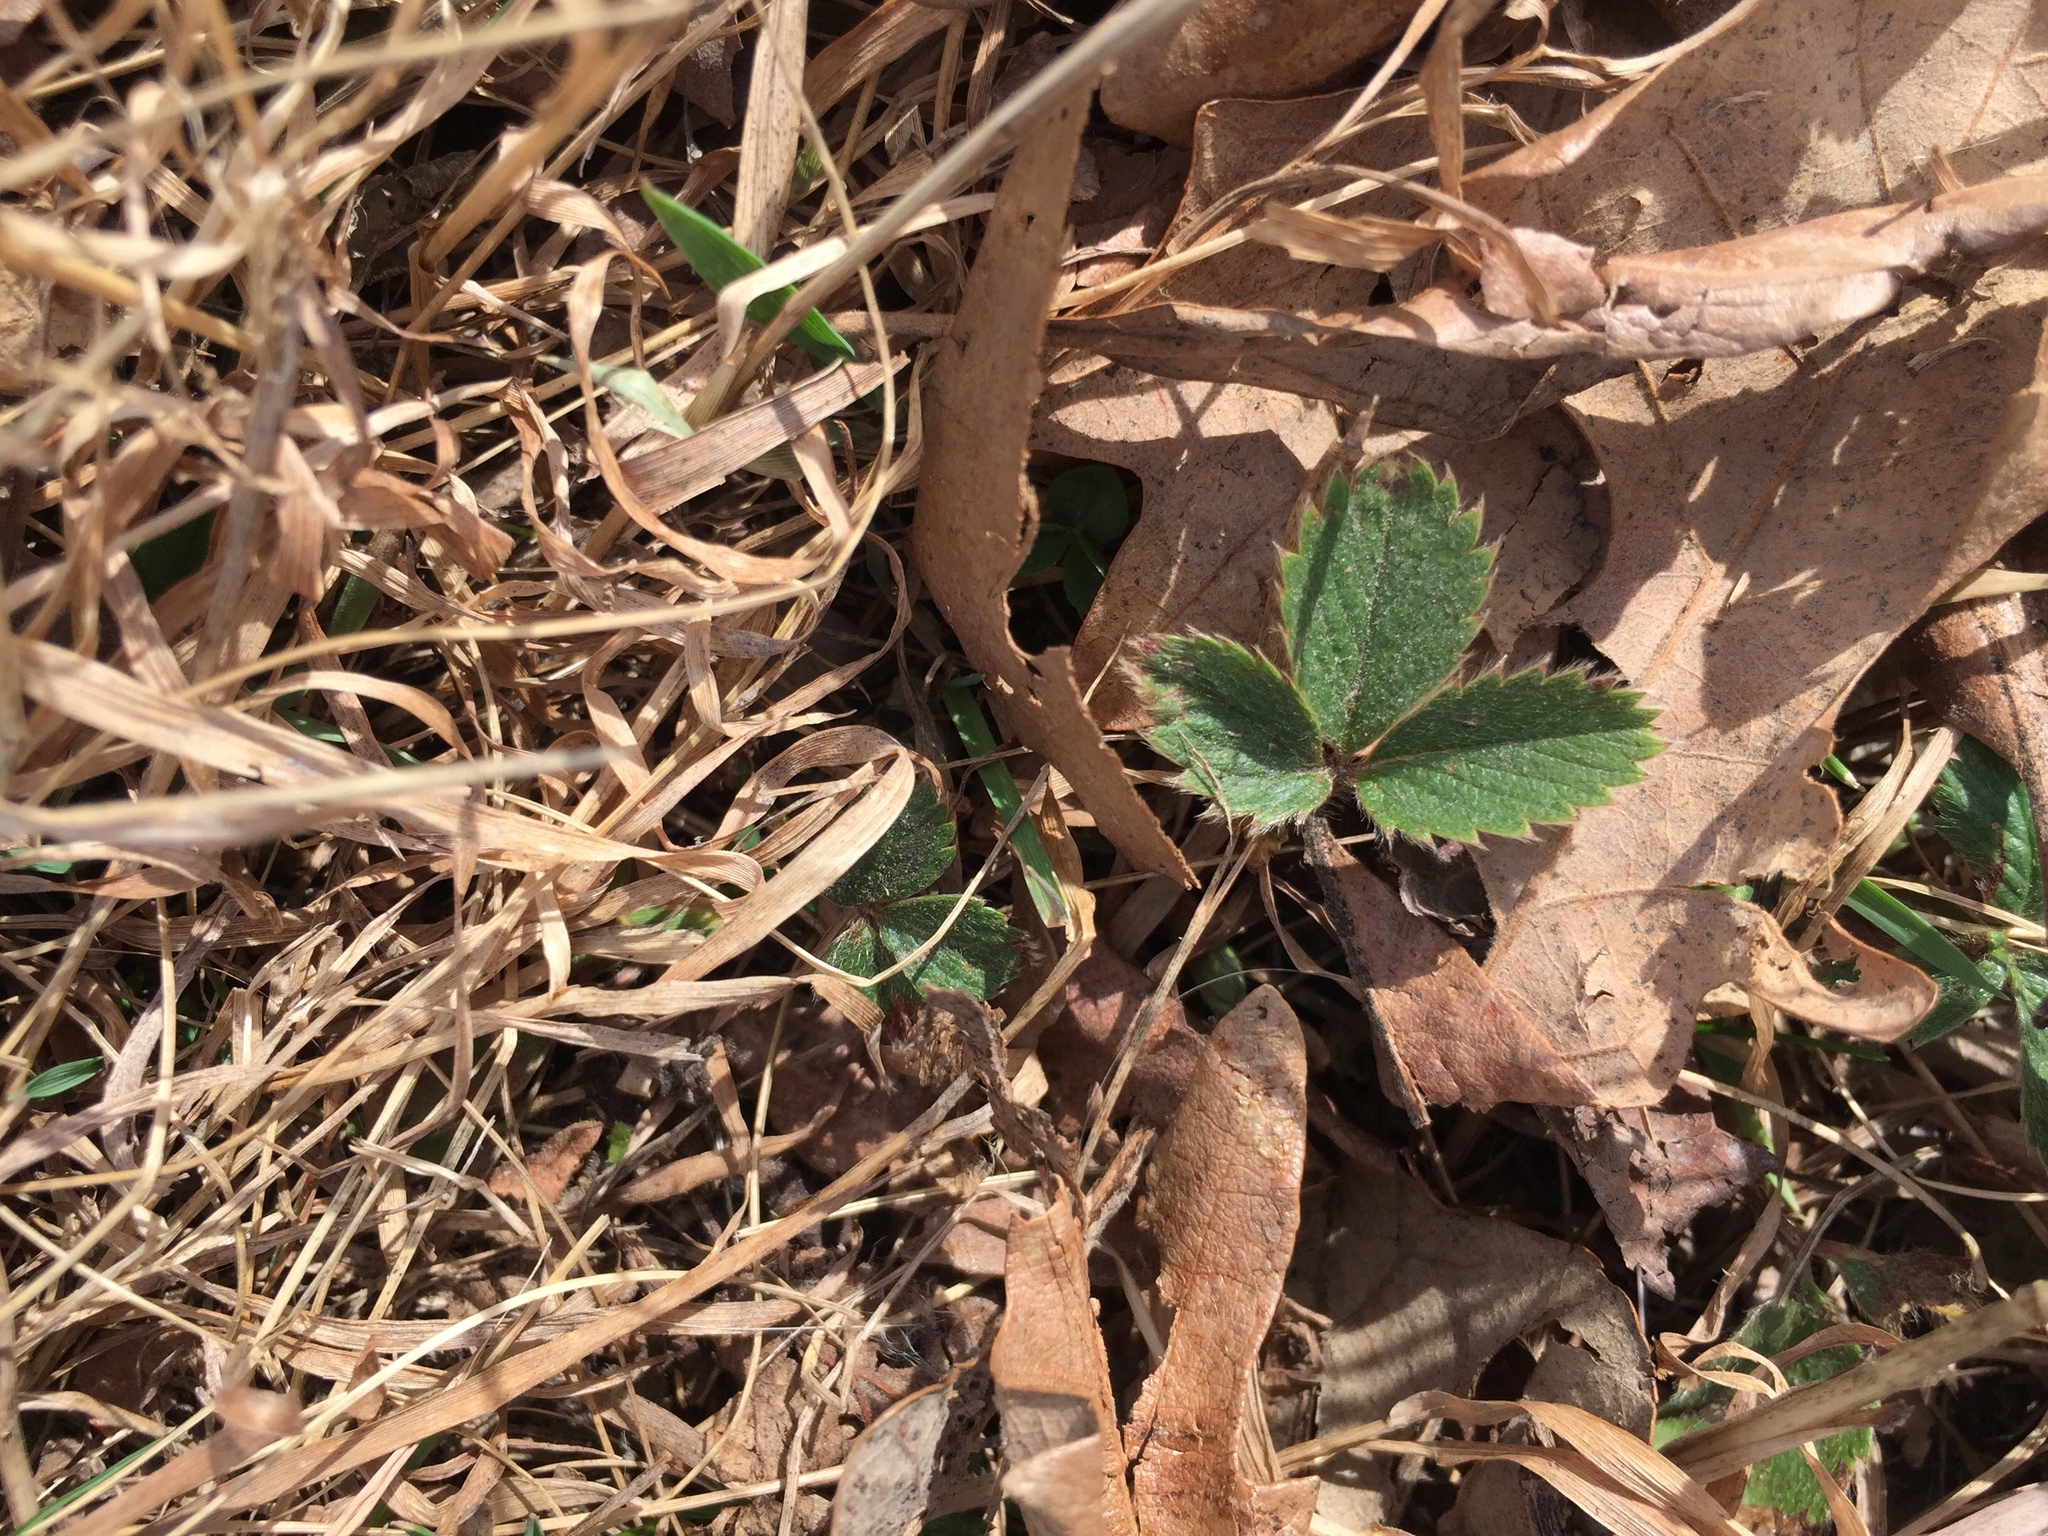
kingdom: Plantae
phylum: Tracheophyta
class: Magnoliopsida
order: Rosales
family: Rosaceae
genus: Fragaria
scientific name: Fragaria virginiana
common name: Thickleaved wild strawberry
